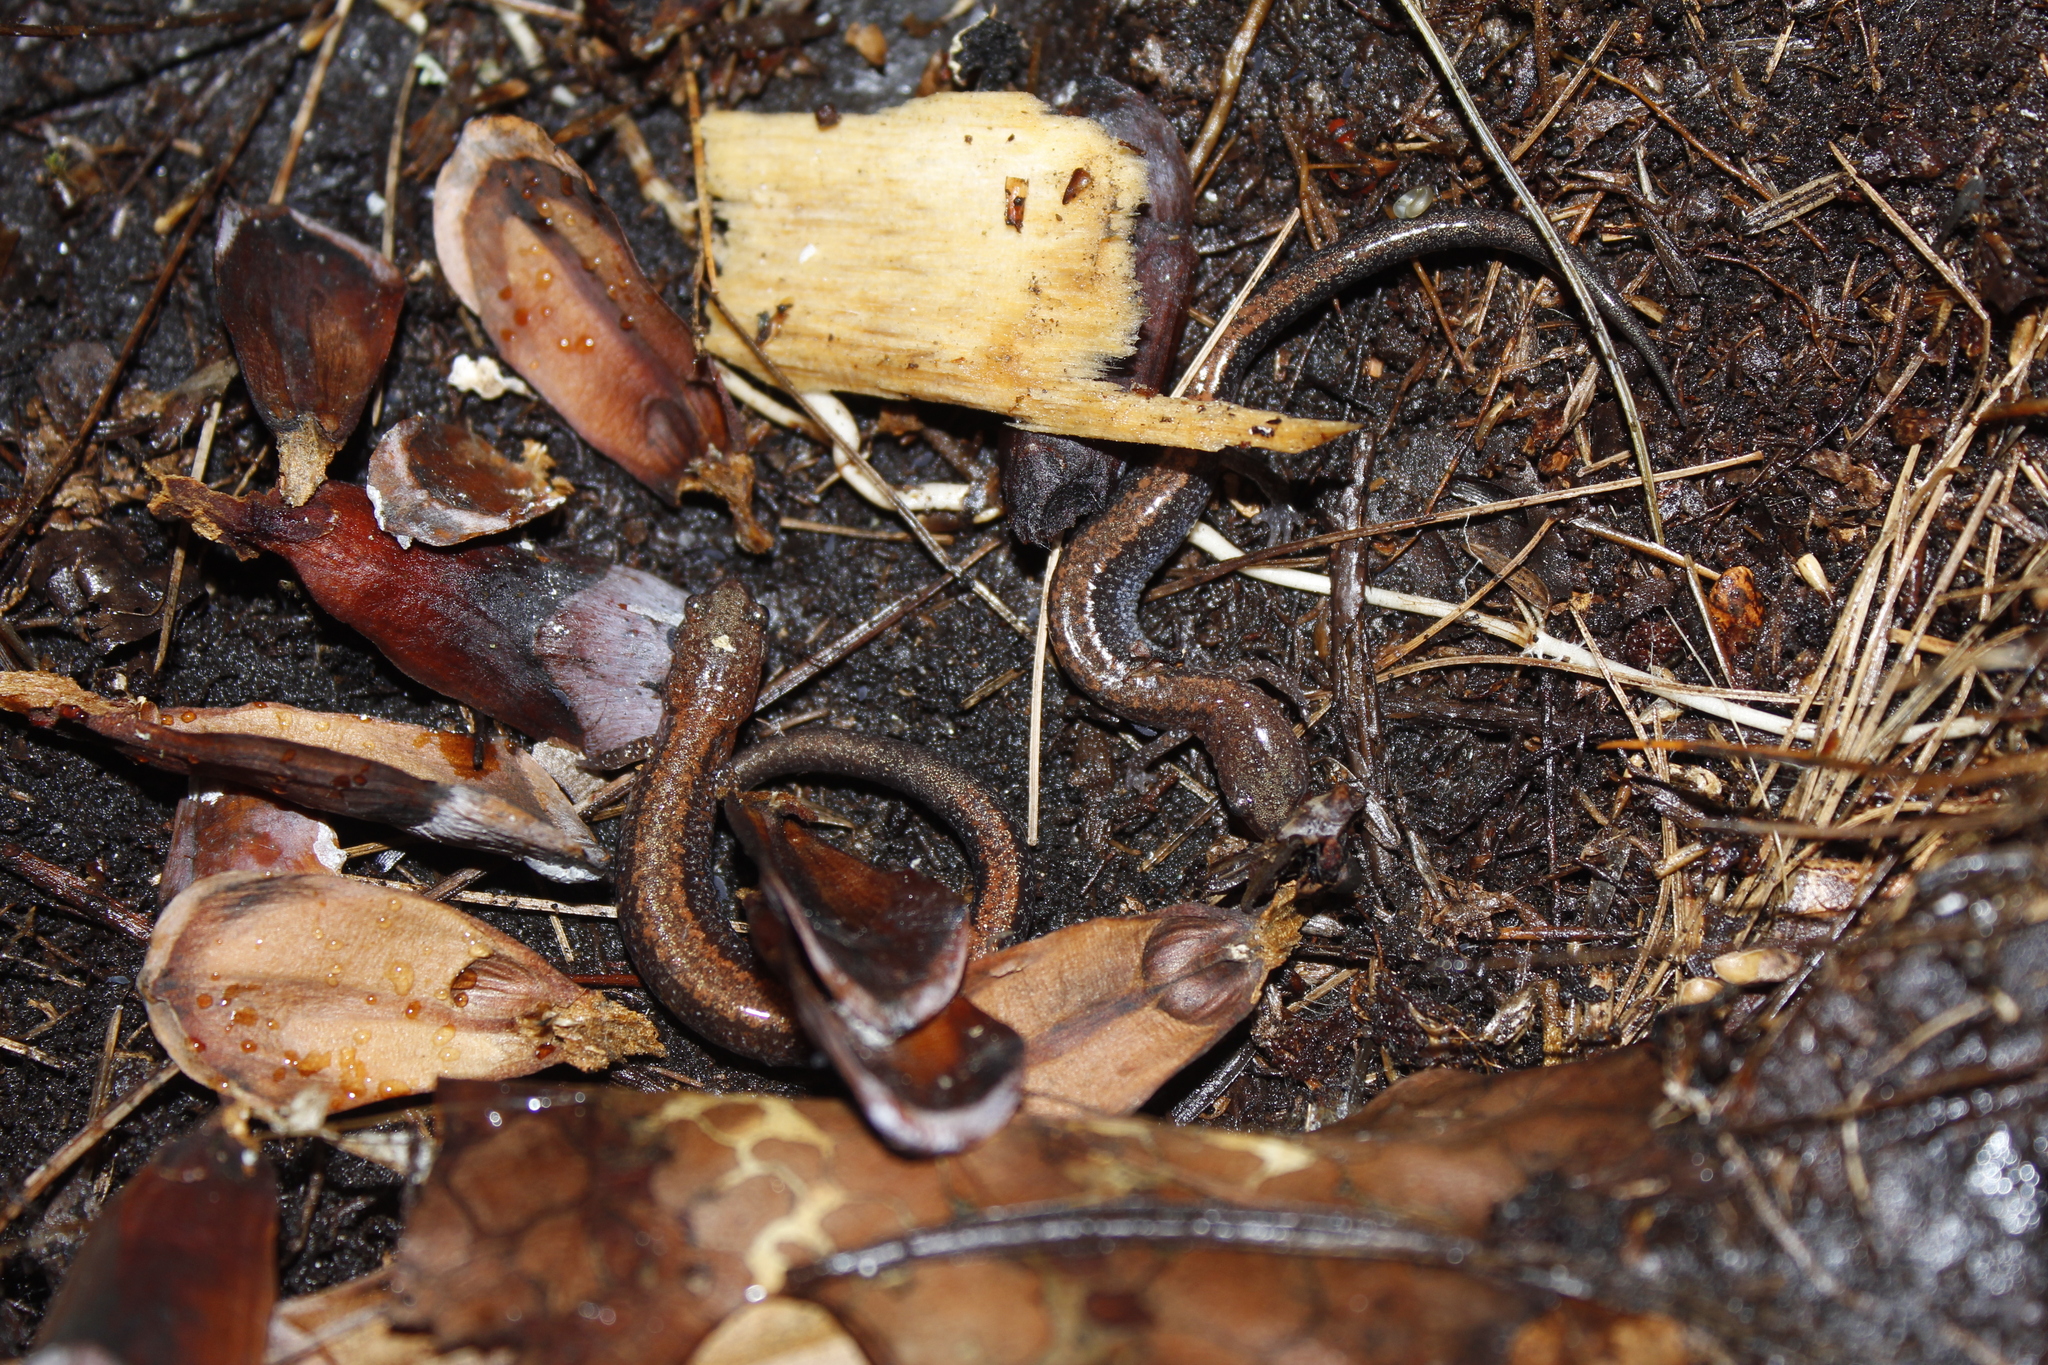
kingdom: Animalia
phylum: Chordata
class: Amphibia
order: Caudata
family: Plethodontidae
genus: Plethodon
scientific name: Plethodon cinereus
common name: Redback salamander
